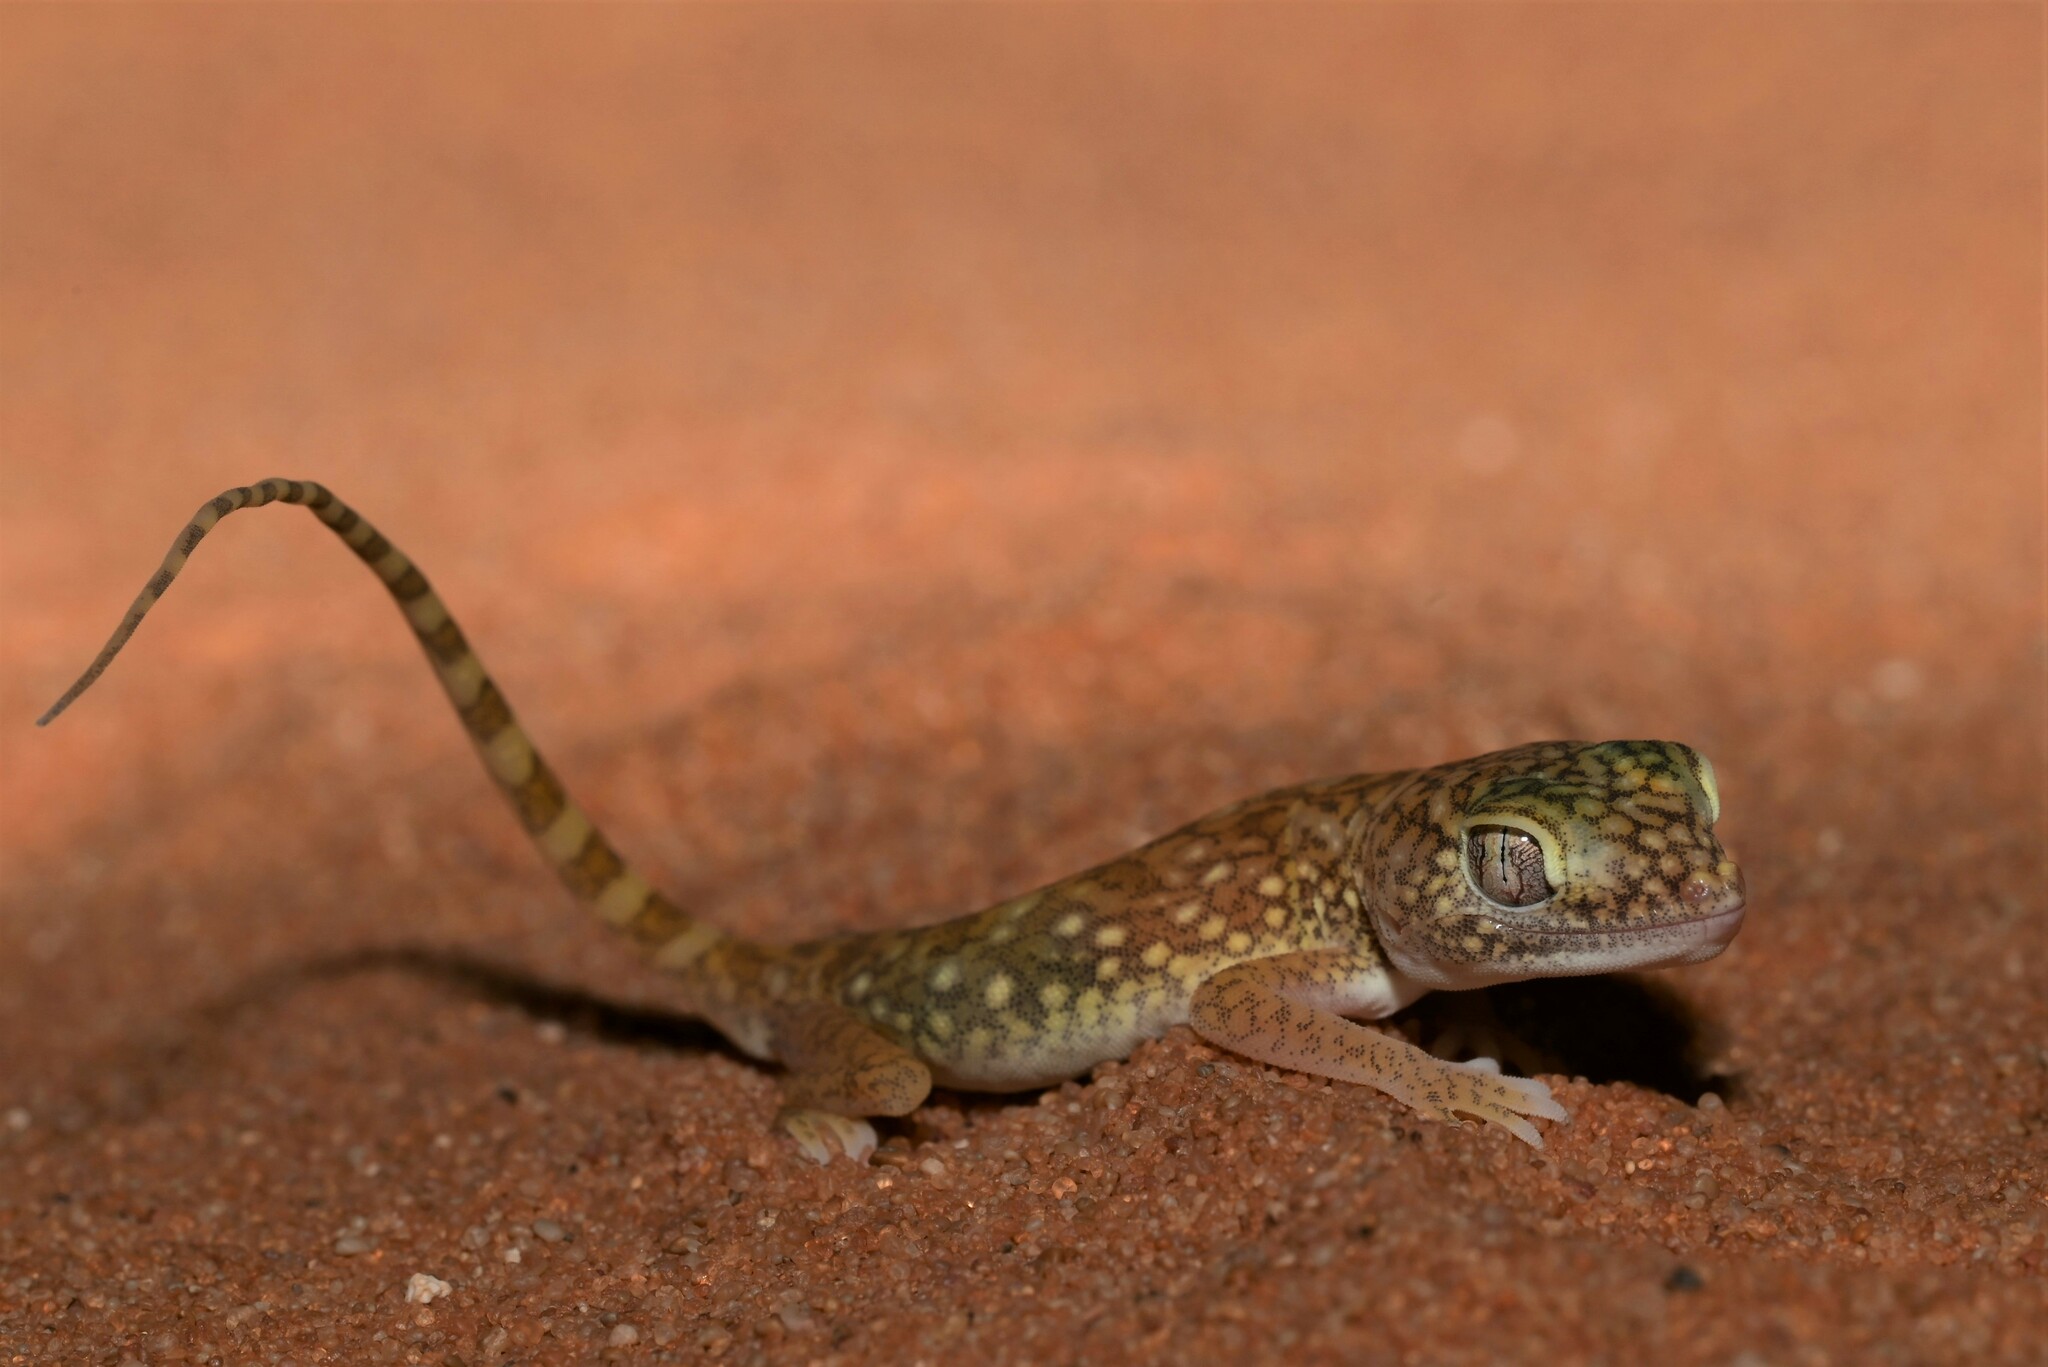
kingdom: Animalia
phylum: Chordata
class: Squamata
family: Gekkonidae
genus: Stenodactylus
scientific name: Stenodactylus doriae
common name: Dune sand gecko
